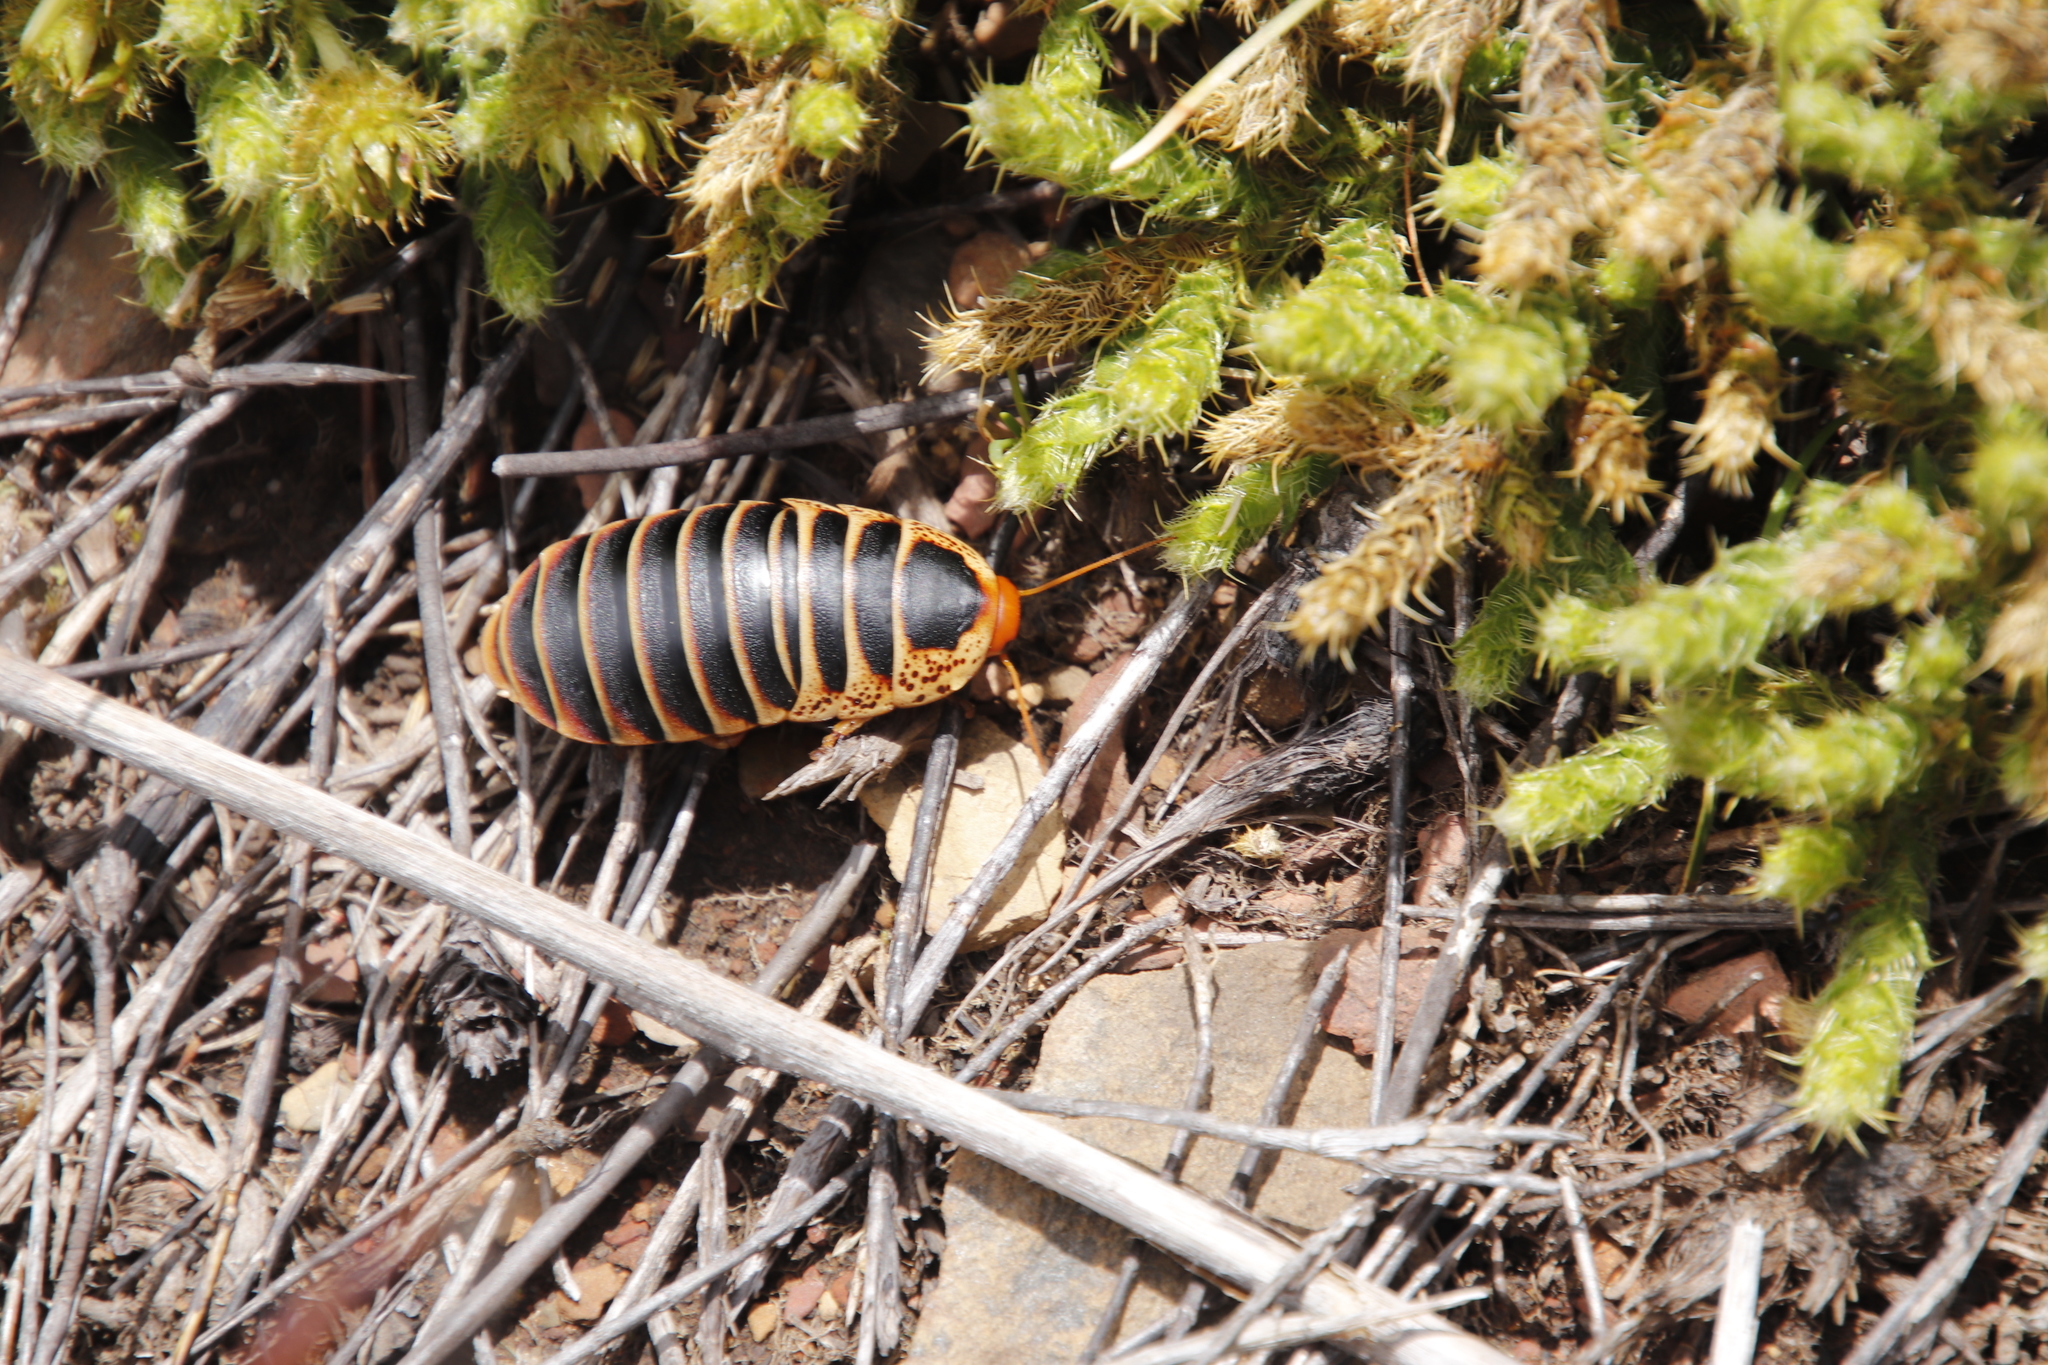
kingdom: Animalia
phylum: Arthropoda
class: Insecta
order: Blattodea
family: Blaberidae
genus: Aptera
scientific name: Aptera fusca
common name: Cape mountain cockroach
